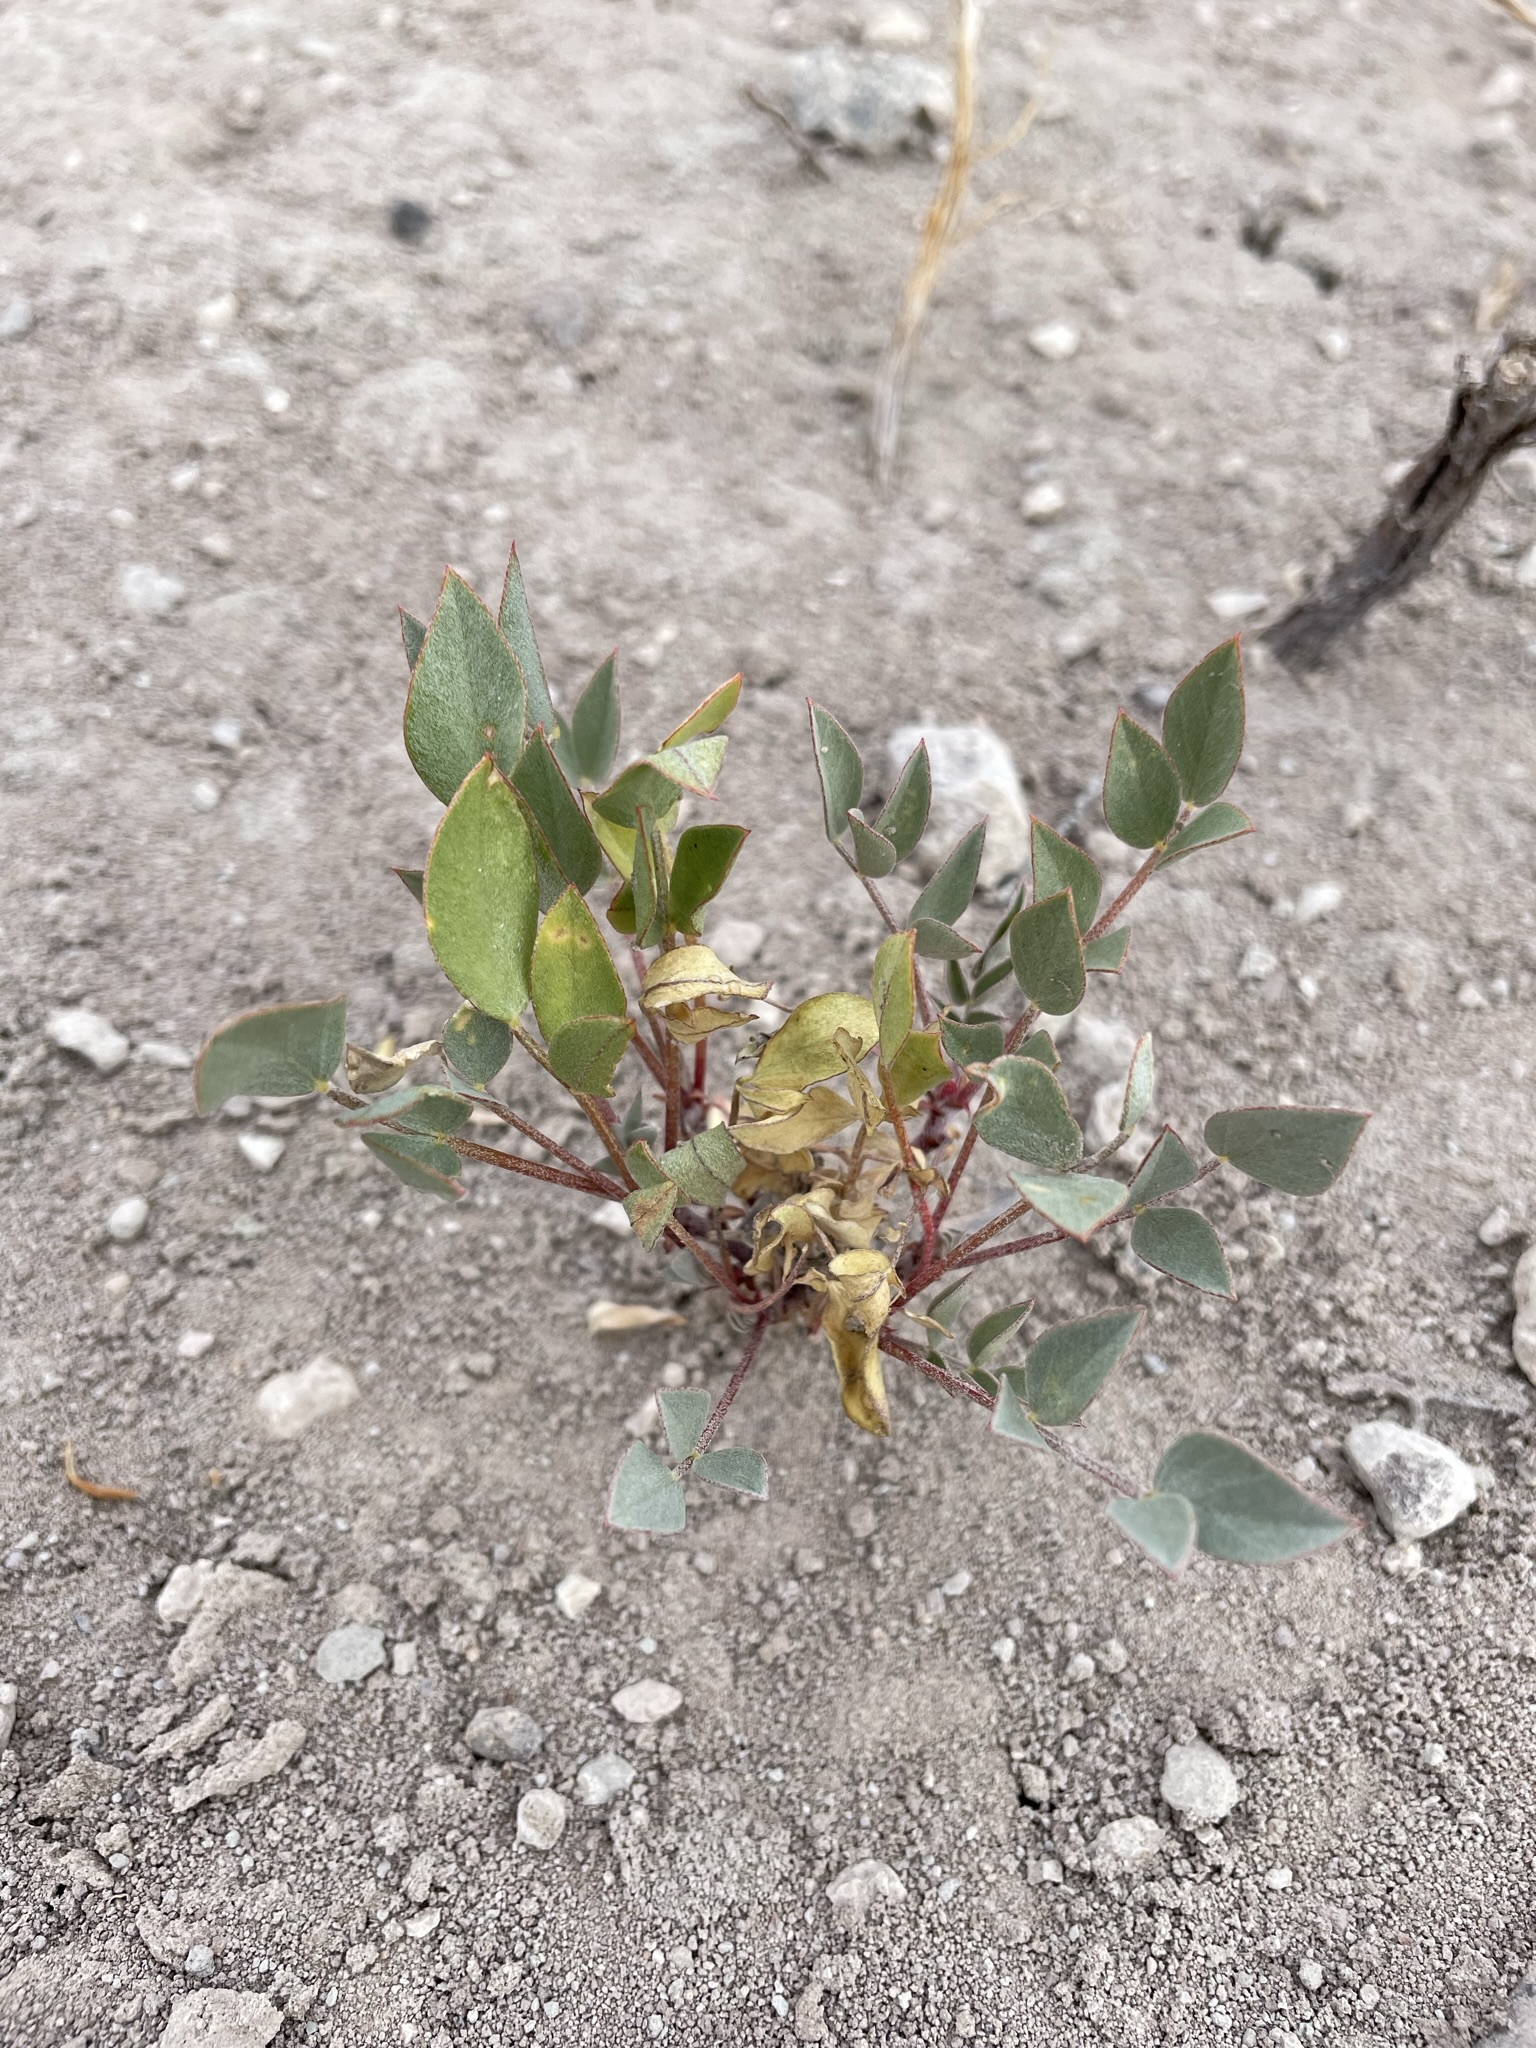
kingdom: Plantae
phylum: Tracheophyta
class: Magnoliopsida
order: Fabales
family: Fabaceae
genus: Astragalus
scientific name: Astragalus iselyi
